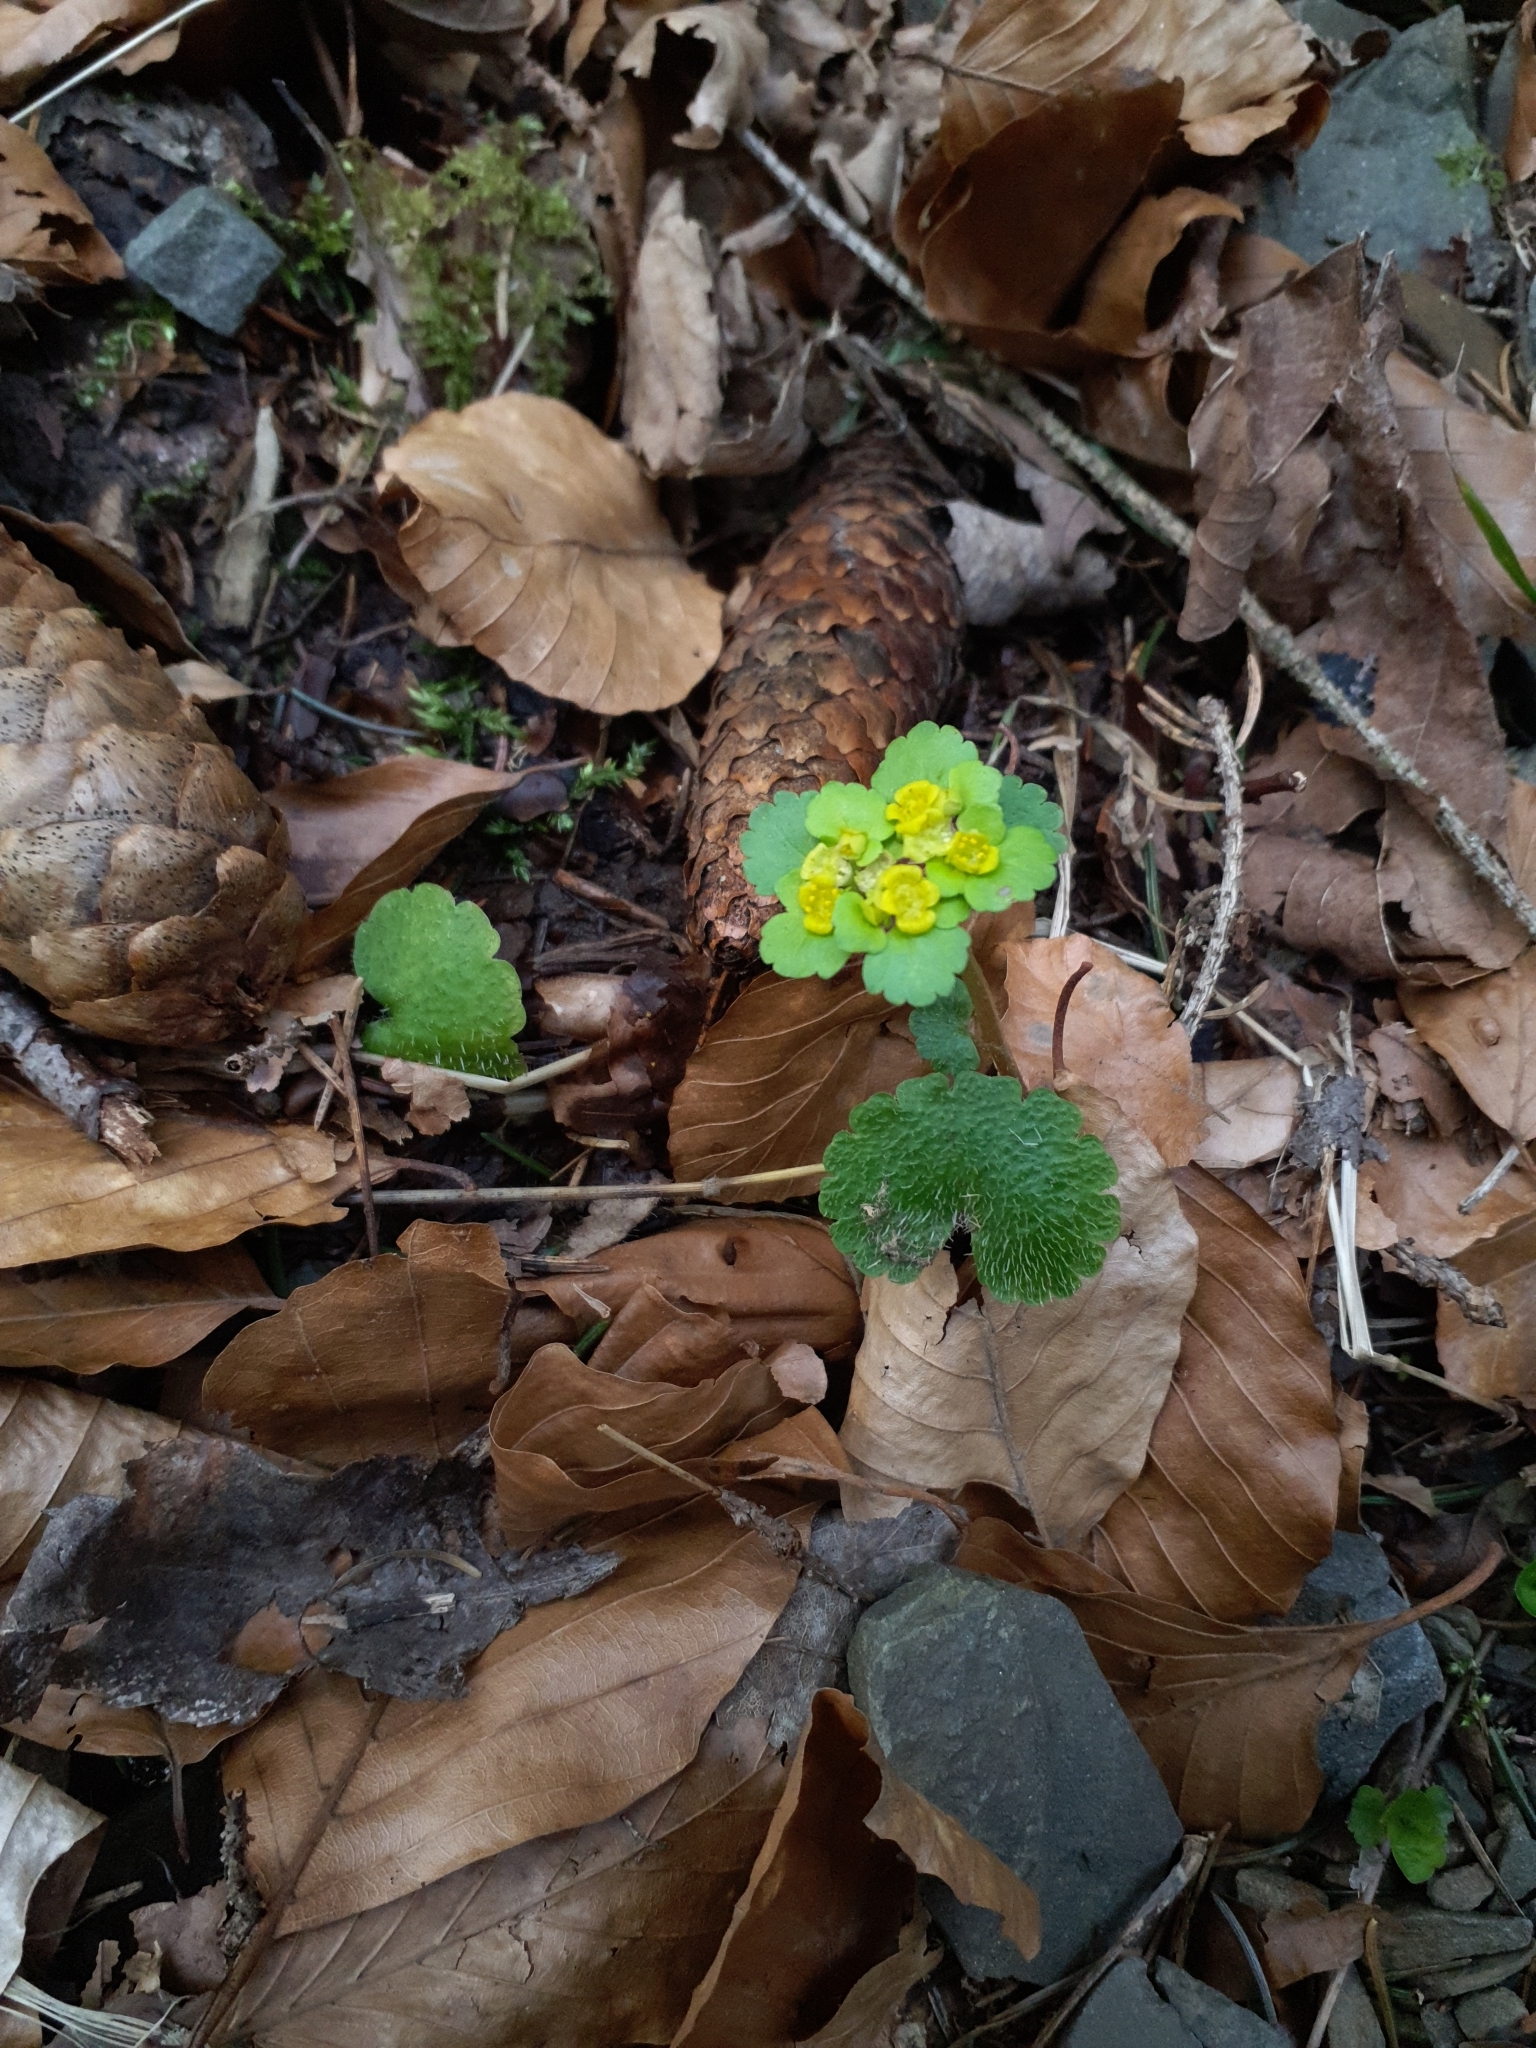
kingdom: Plantae
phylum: Tracheophyta
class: Magnoliopsida
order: Saxifragales
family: Saxifragaceae
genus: Chrysosplenium
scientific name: Chrysosplenium alternifolium
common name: Alternate-leaved golden-saxifrage
